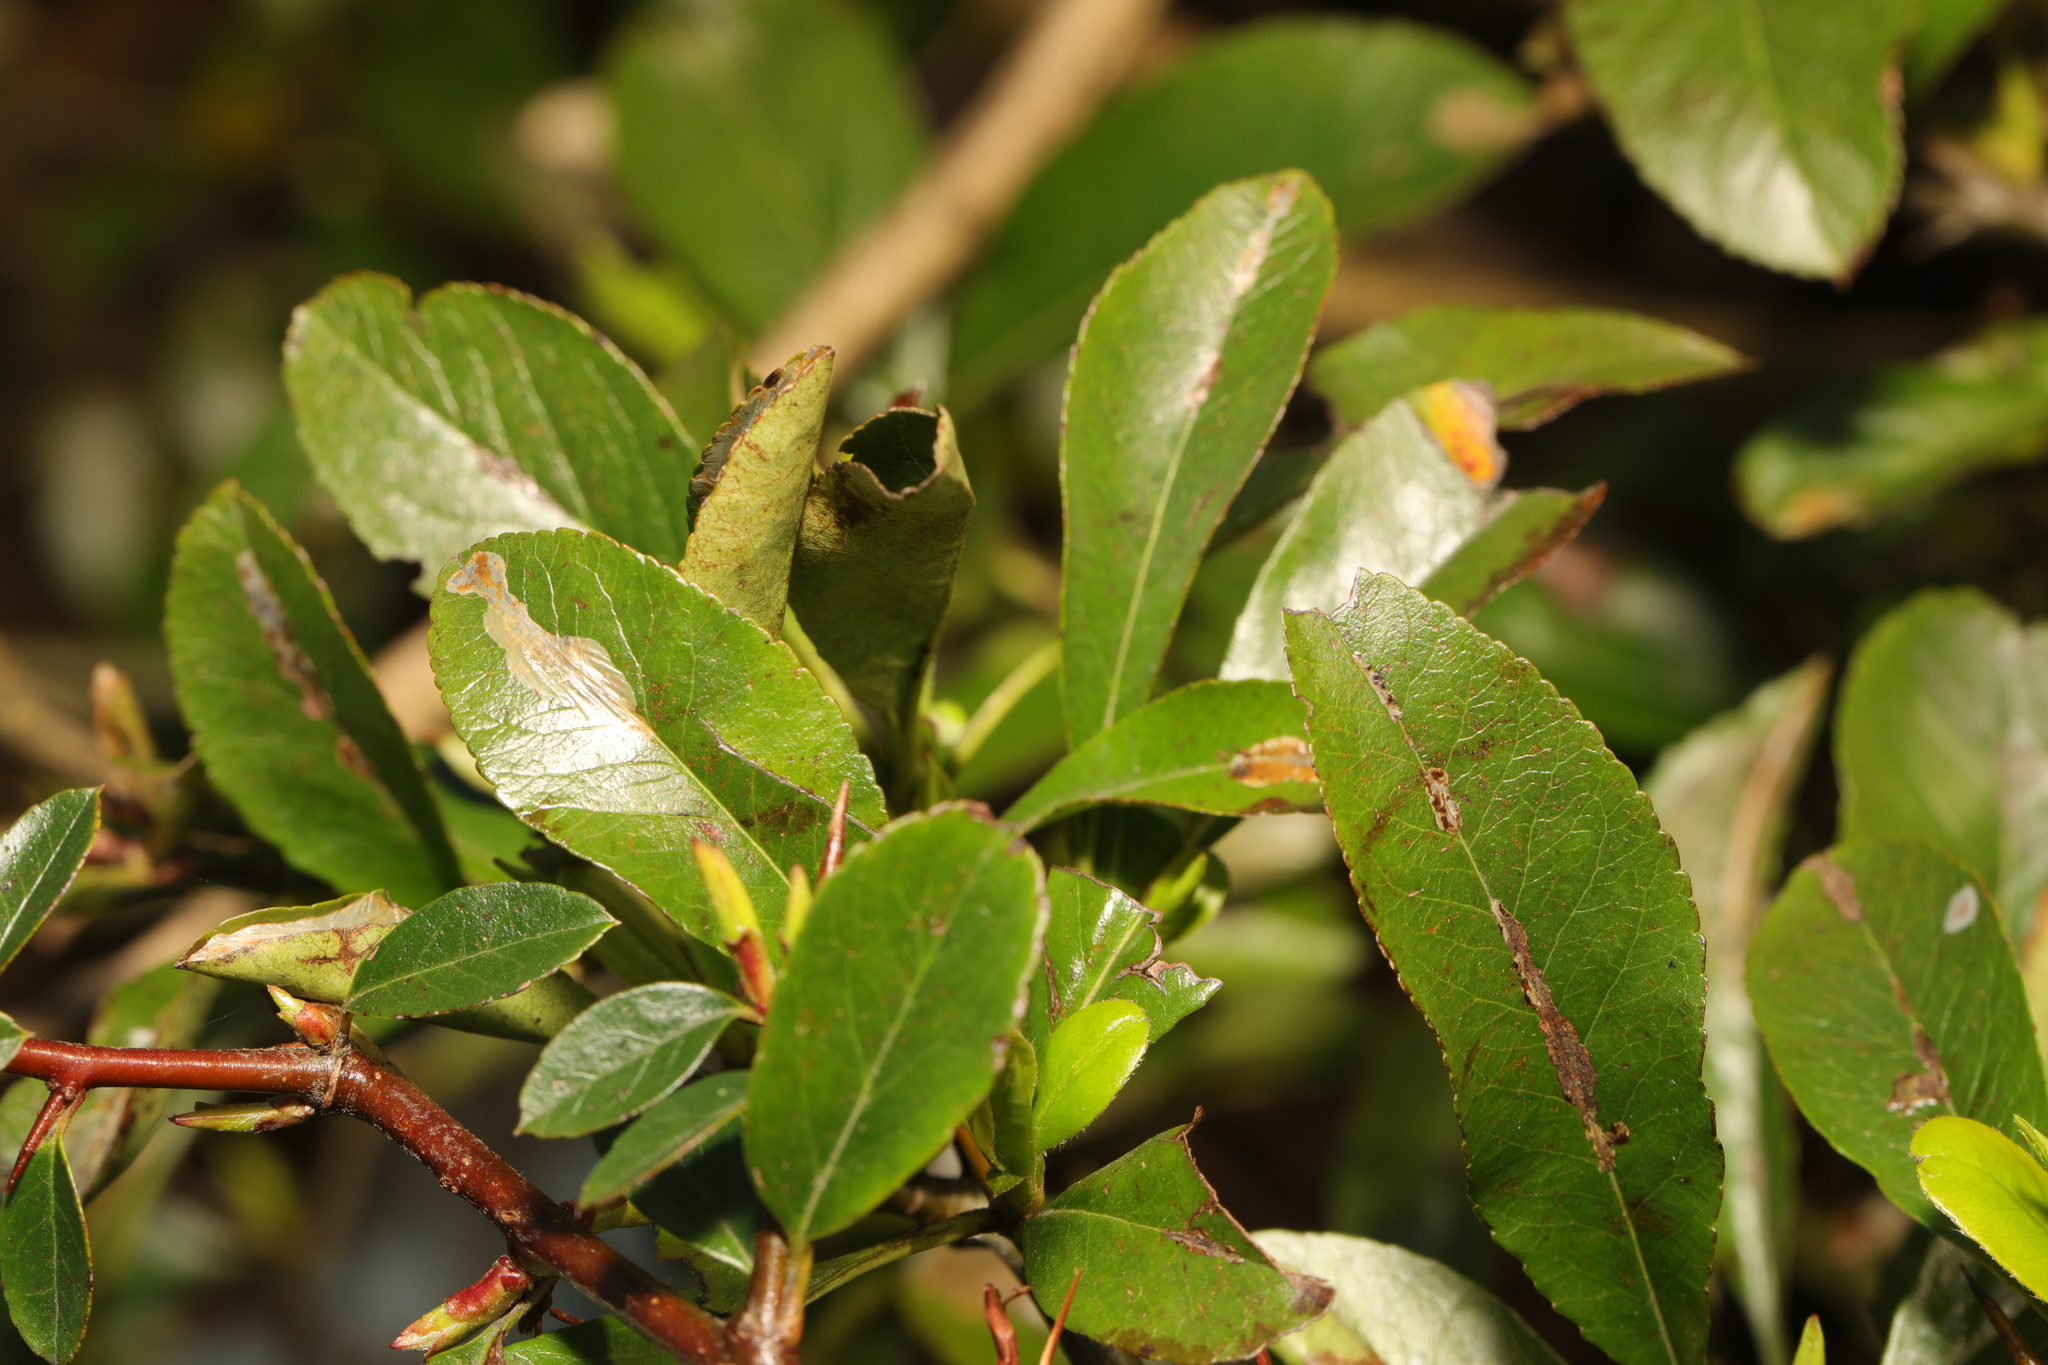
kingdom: Plantae
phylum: Tracheophyta
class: Magnoliopsida
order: Rosales
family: Rosaceae
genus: Pyracantha
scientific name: Pyracantha coccinea
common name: Firethorn
